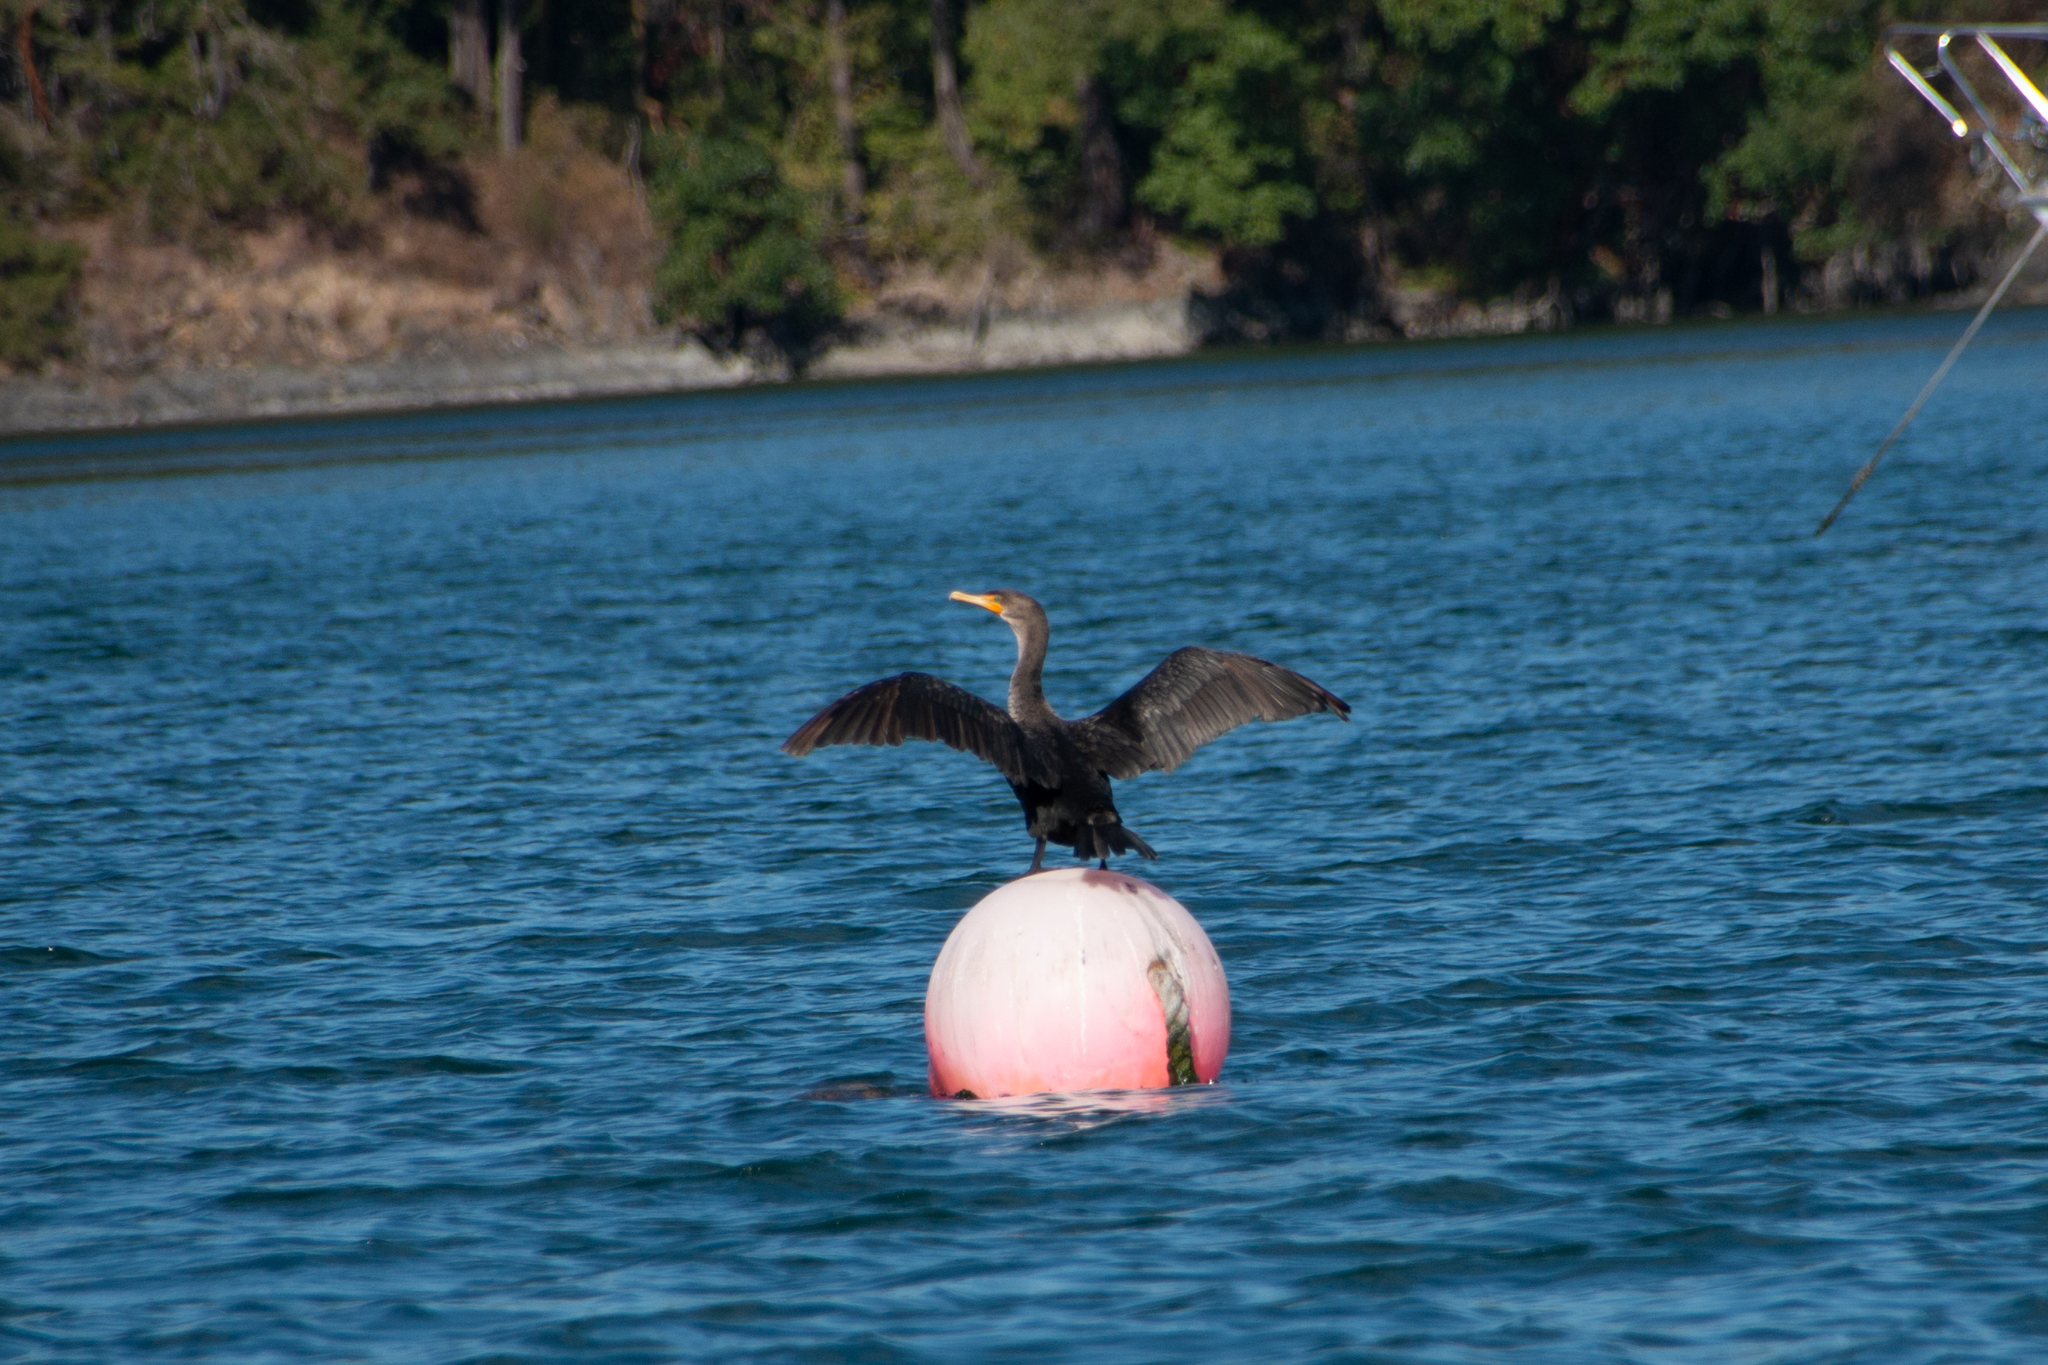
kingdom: Animalia
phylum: Chordata
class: Aves
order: Suliformes
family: Phalacrocoracidae
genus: Phalacrocorax
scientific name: Phalacrocorax auritus
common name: Double-crested cormorant
